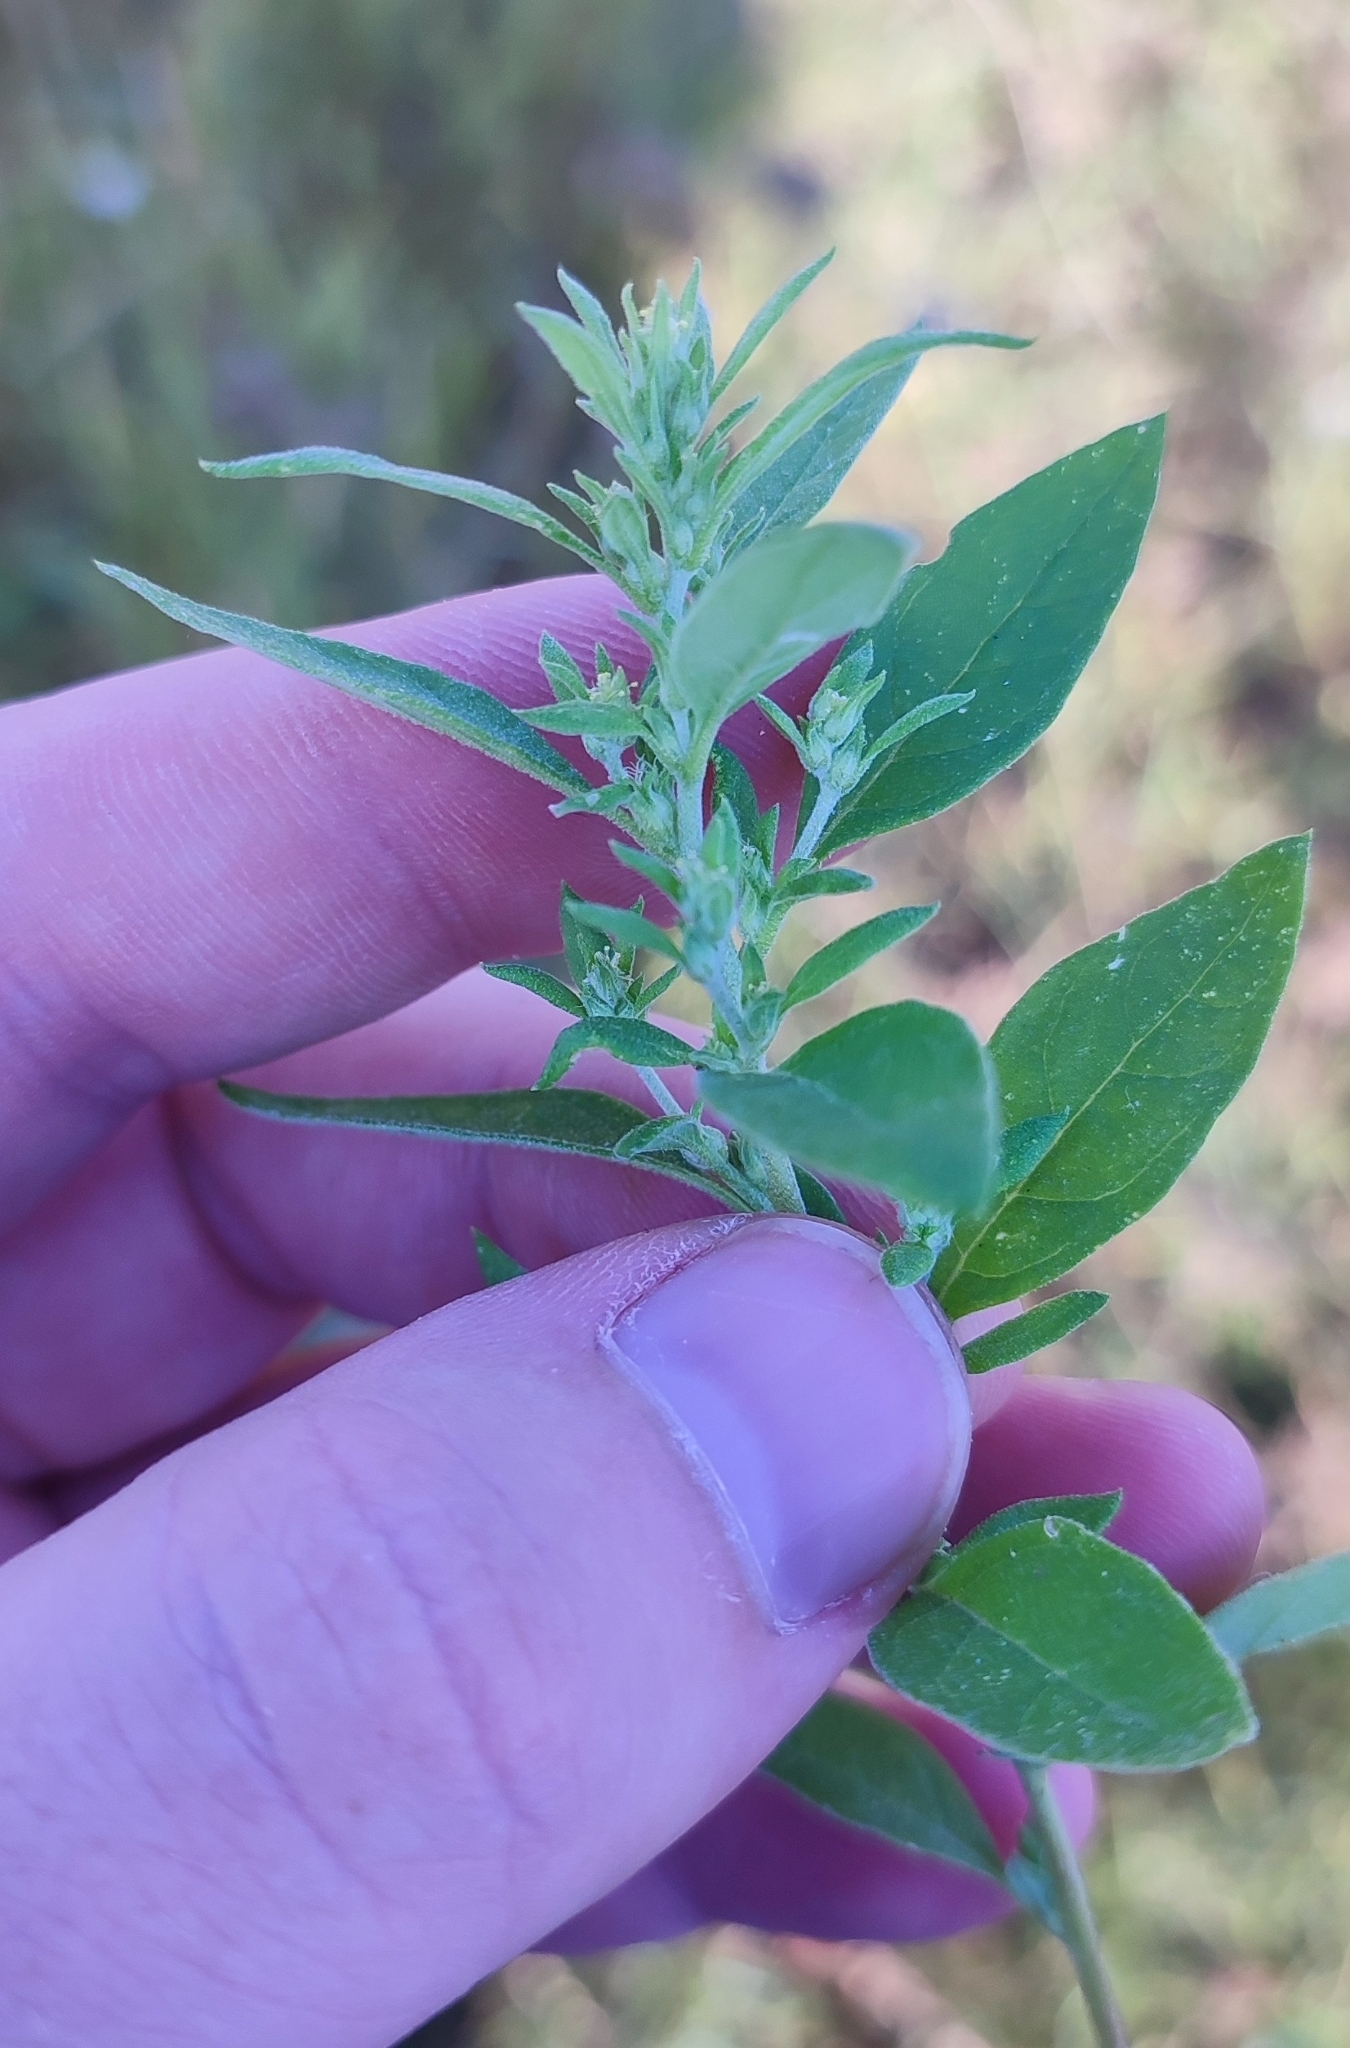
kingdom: Plantae
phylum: Tracheophyta
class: Magnoliopsida
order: Caryophyllales
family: Amaranthaceae
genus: Axyris
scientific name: Axyris amaranthoides
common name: Russian pigweed
